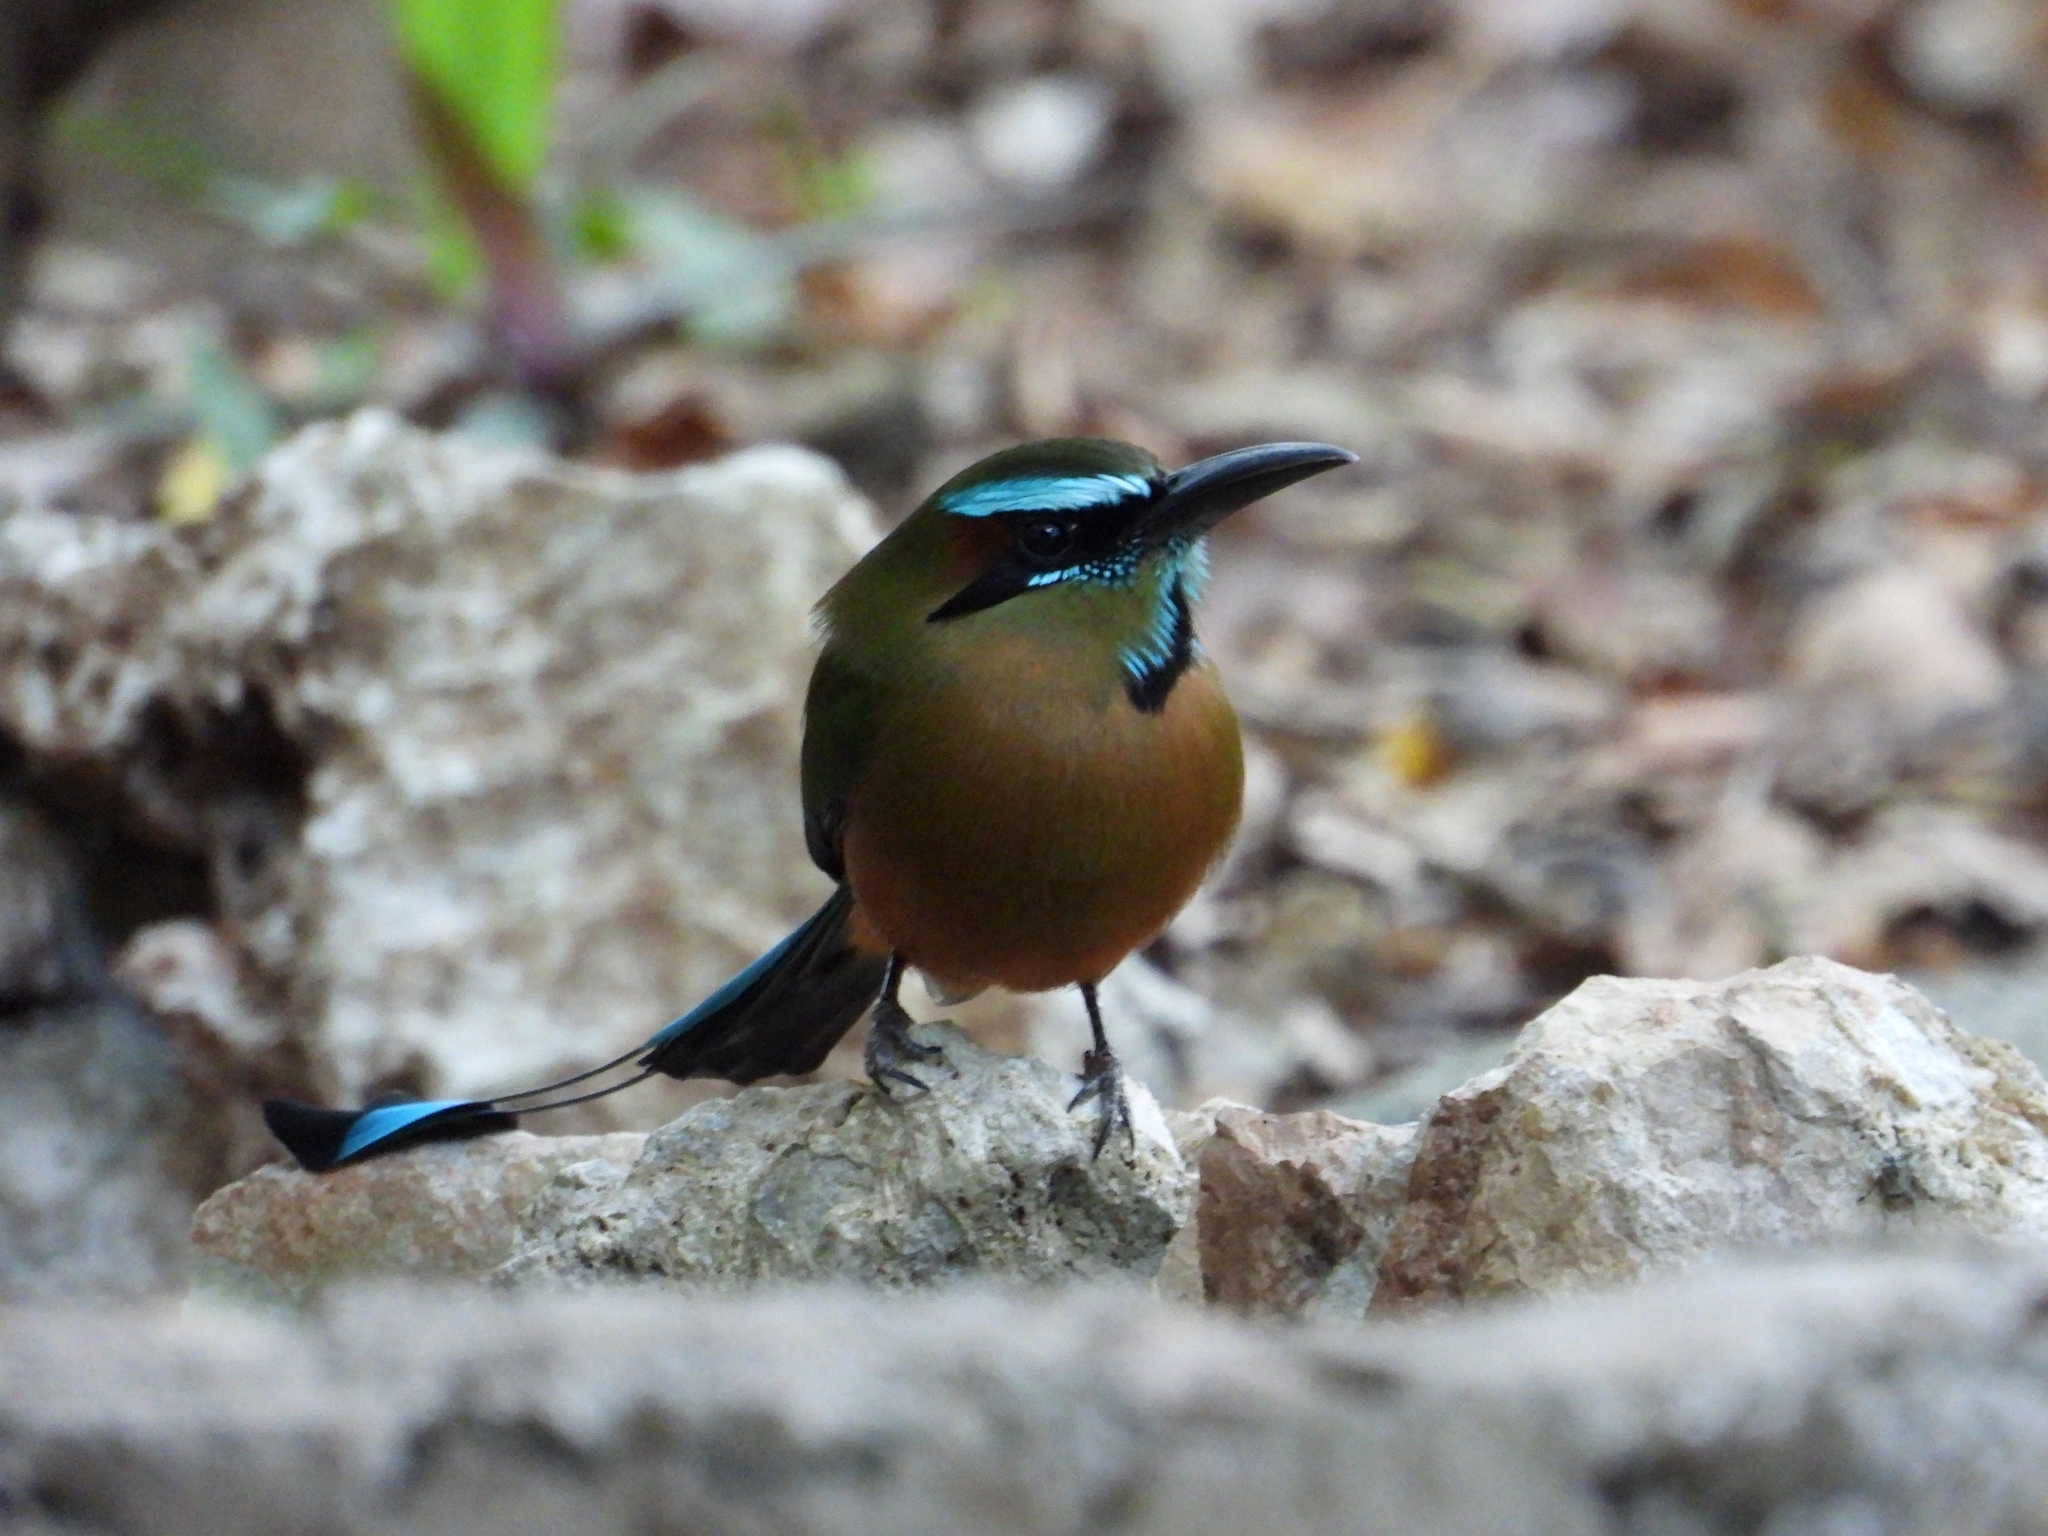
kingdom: Animalia
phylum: Chordata
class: Aves
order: Coraciiformes
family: Momotidae
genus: Eumomota
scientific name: Eumomota superciliosa
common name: Turquoise-browed motmot
